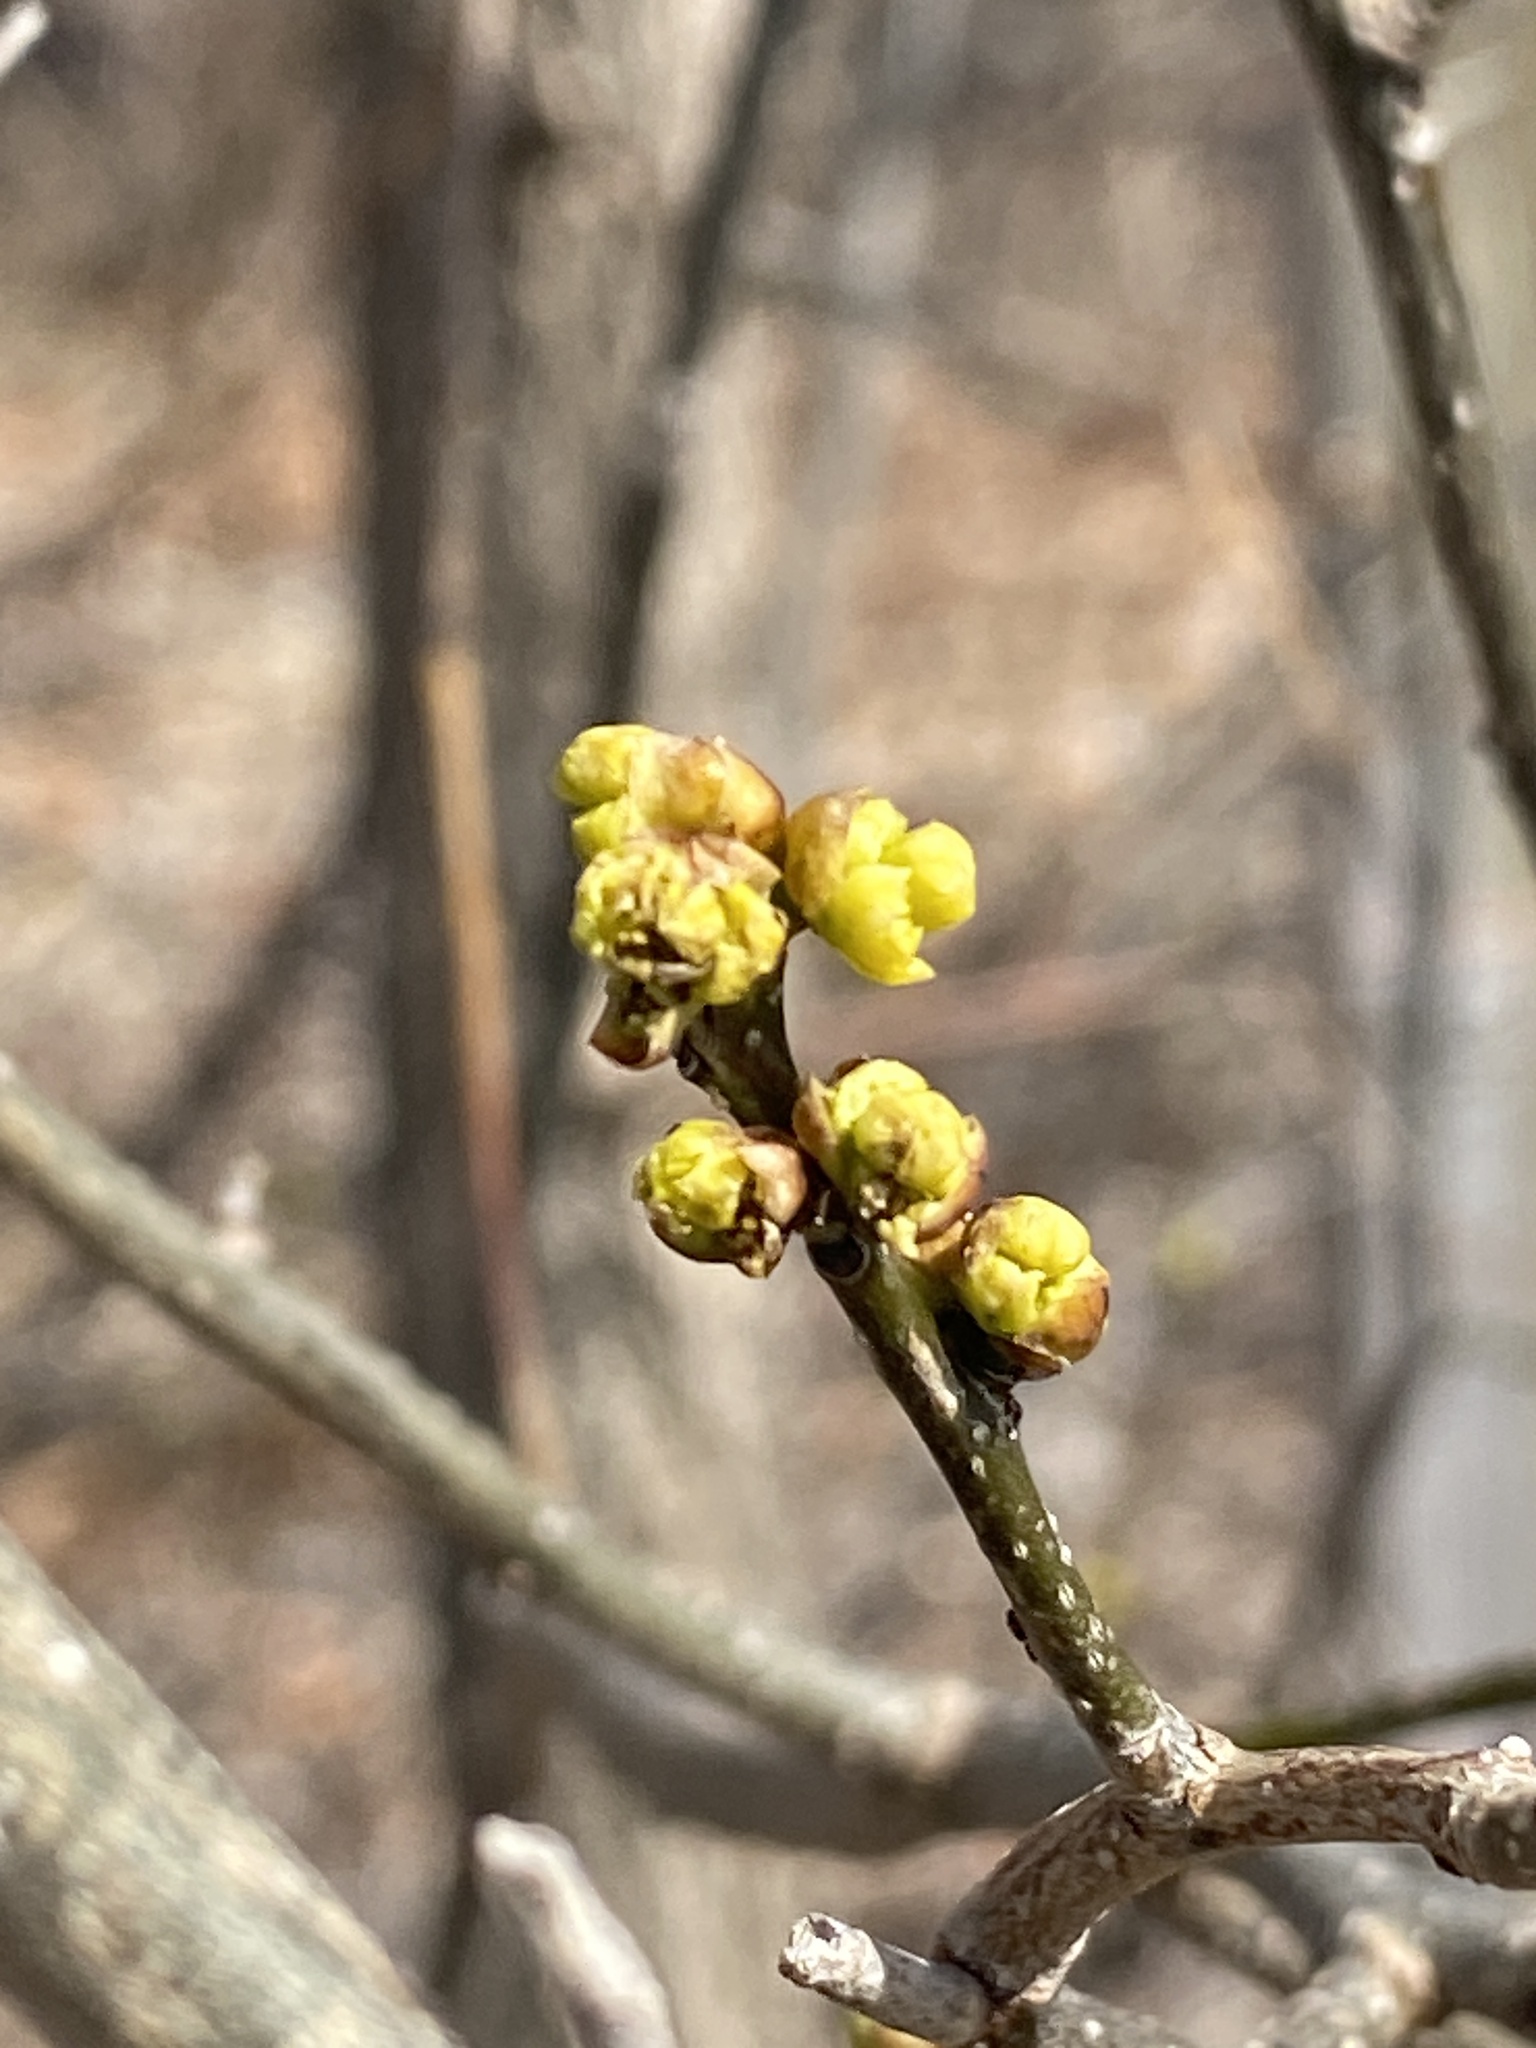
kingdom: Plantae
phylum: Tracheophyta
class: Magnoliopsida
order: Laurales
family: Lauraceae
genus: Lindera
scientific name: Lindera benzoin
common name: Spicebush
